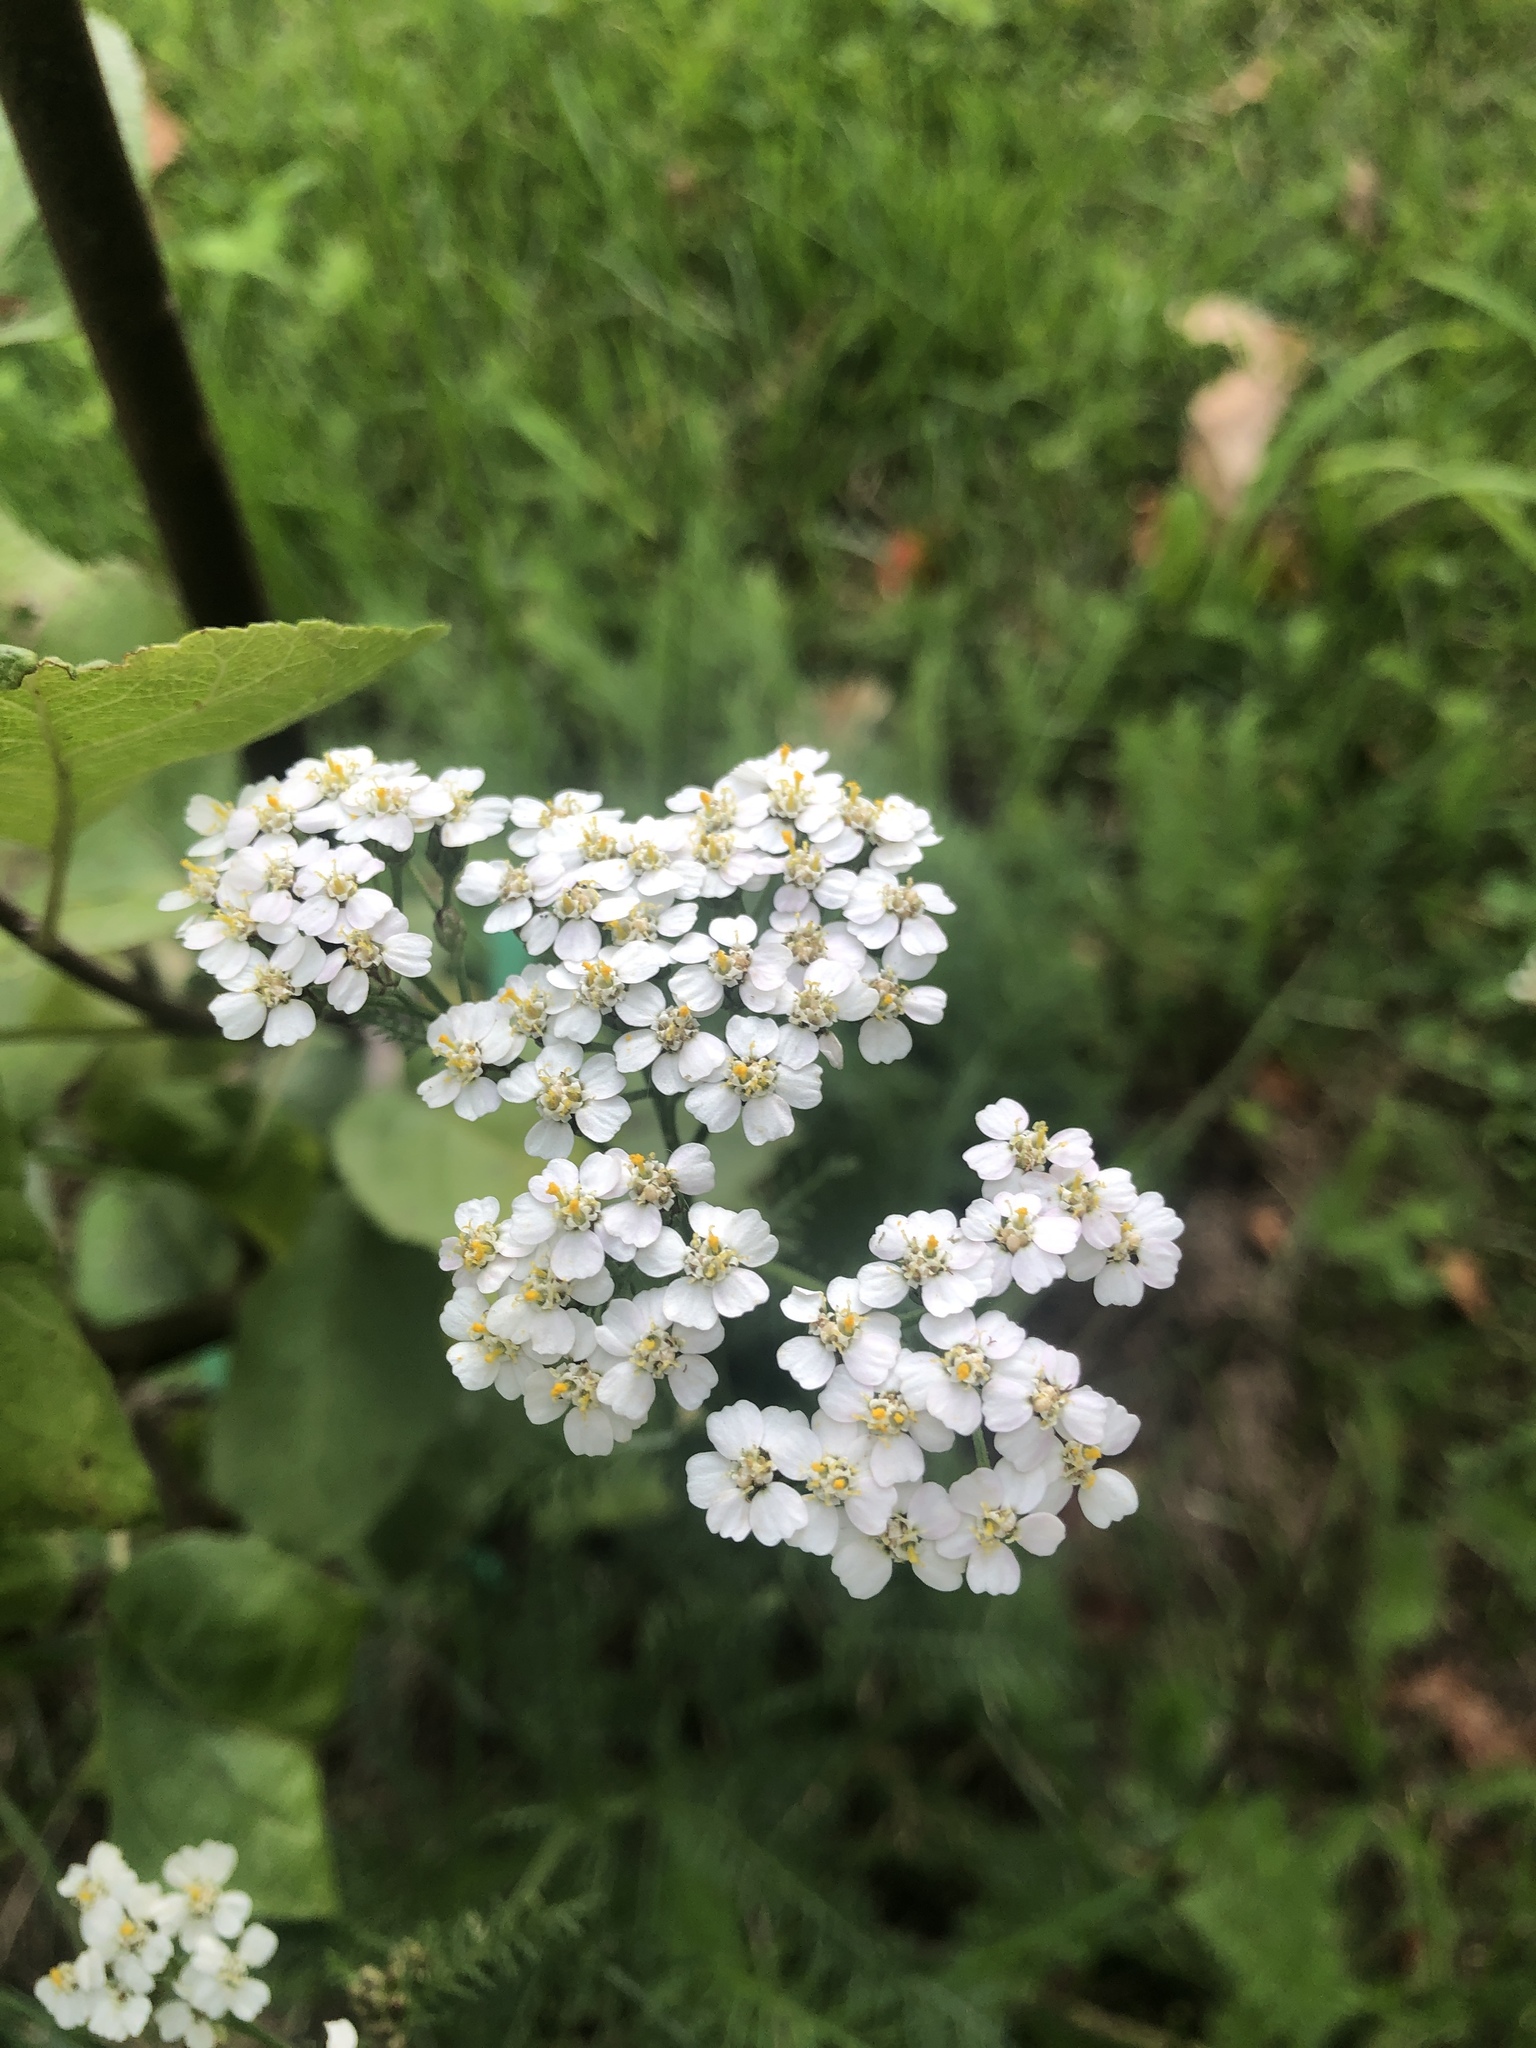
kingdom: Plantae
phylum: Tracheophyta
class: Magnoliopsida
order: Asterales
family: Asteraceae
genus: Achillea
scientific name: Achillea millefolium
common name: Yarrow
